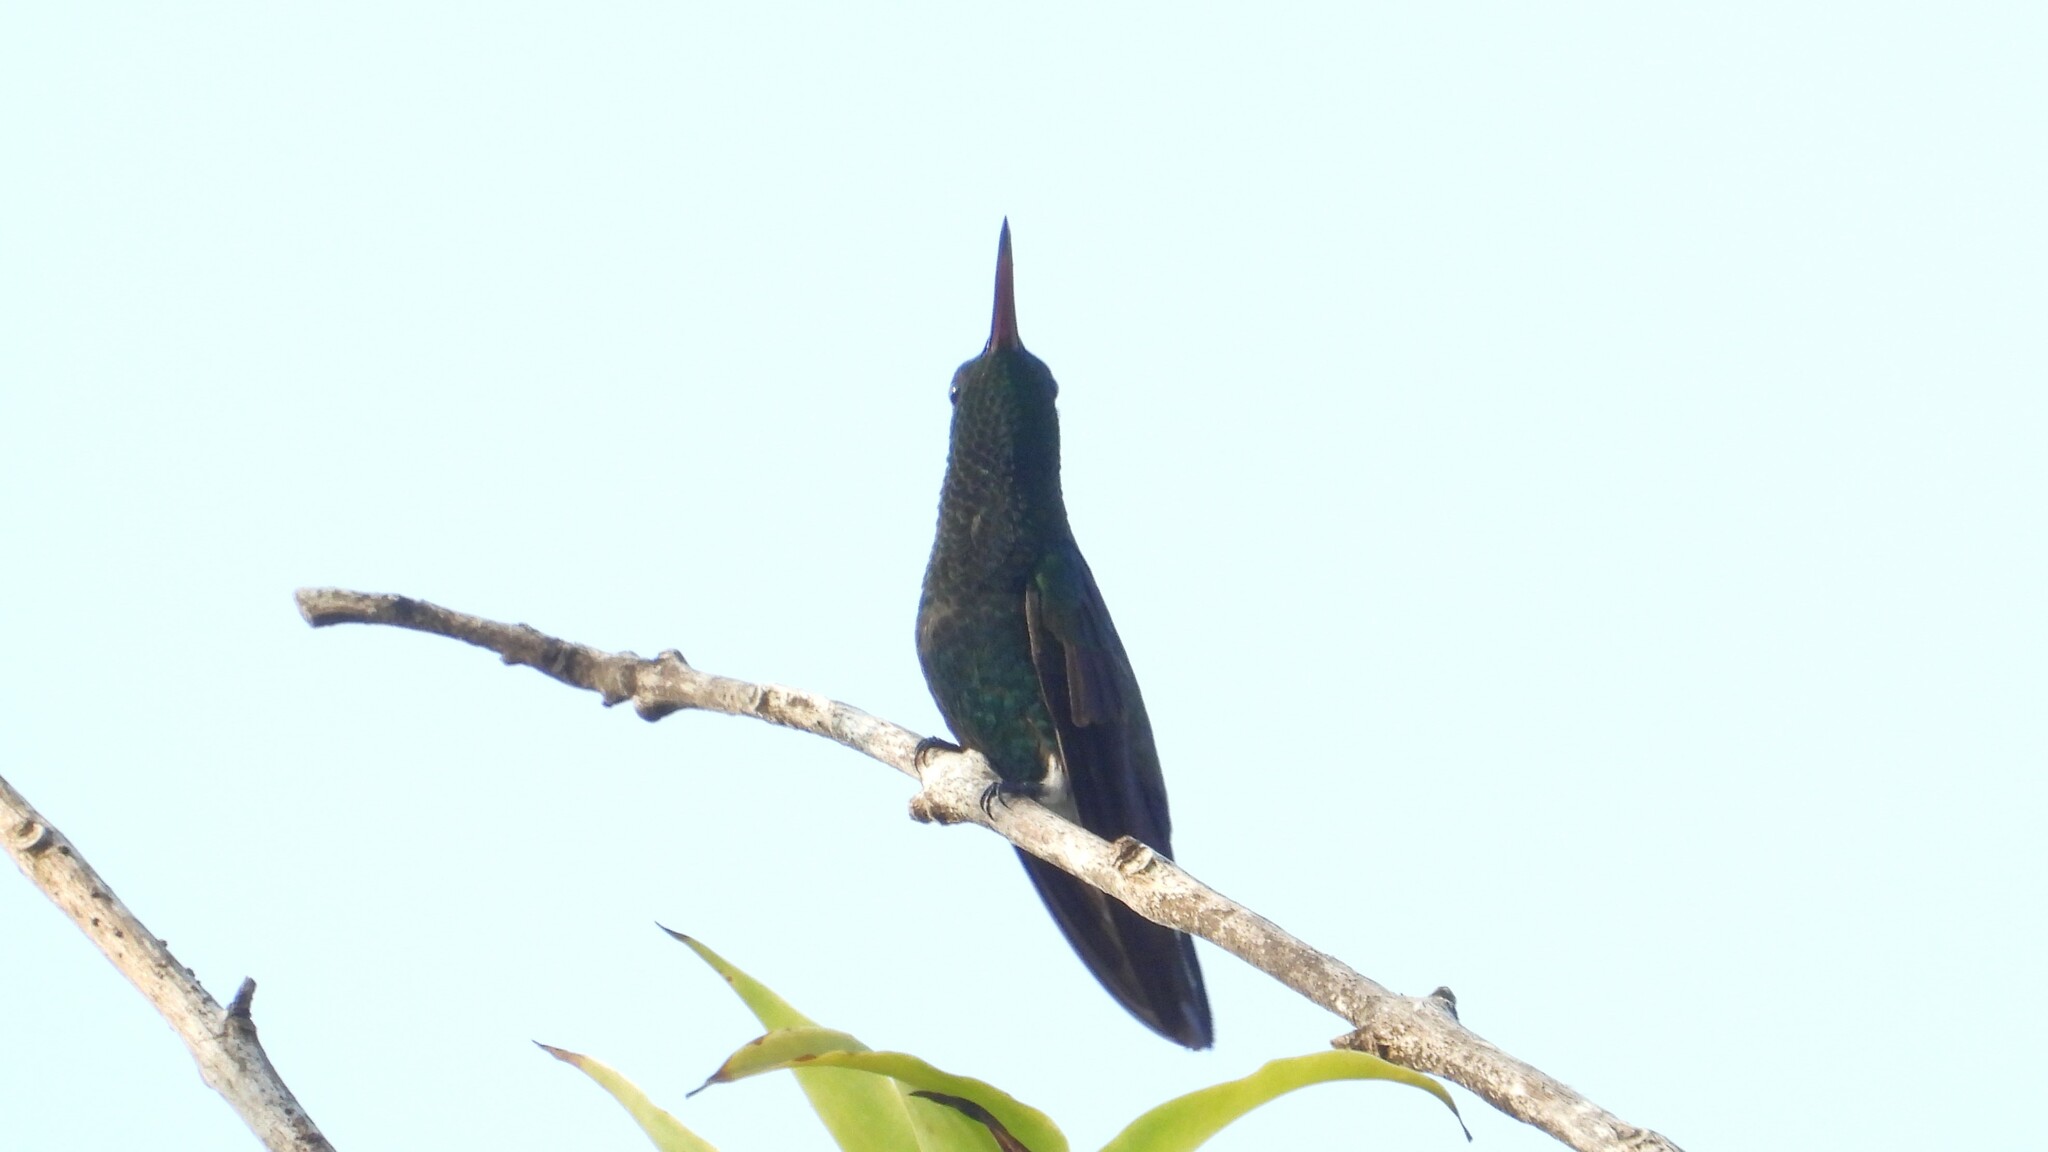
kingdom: Animalia
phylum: Chordata
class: Aves
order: Apodiformes
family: Trochilidae
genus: Chlorestes
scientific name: Chlorestes eliciae
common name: Blue-throated sapphire
